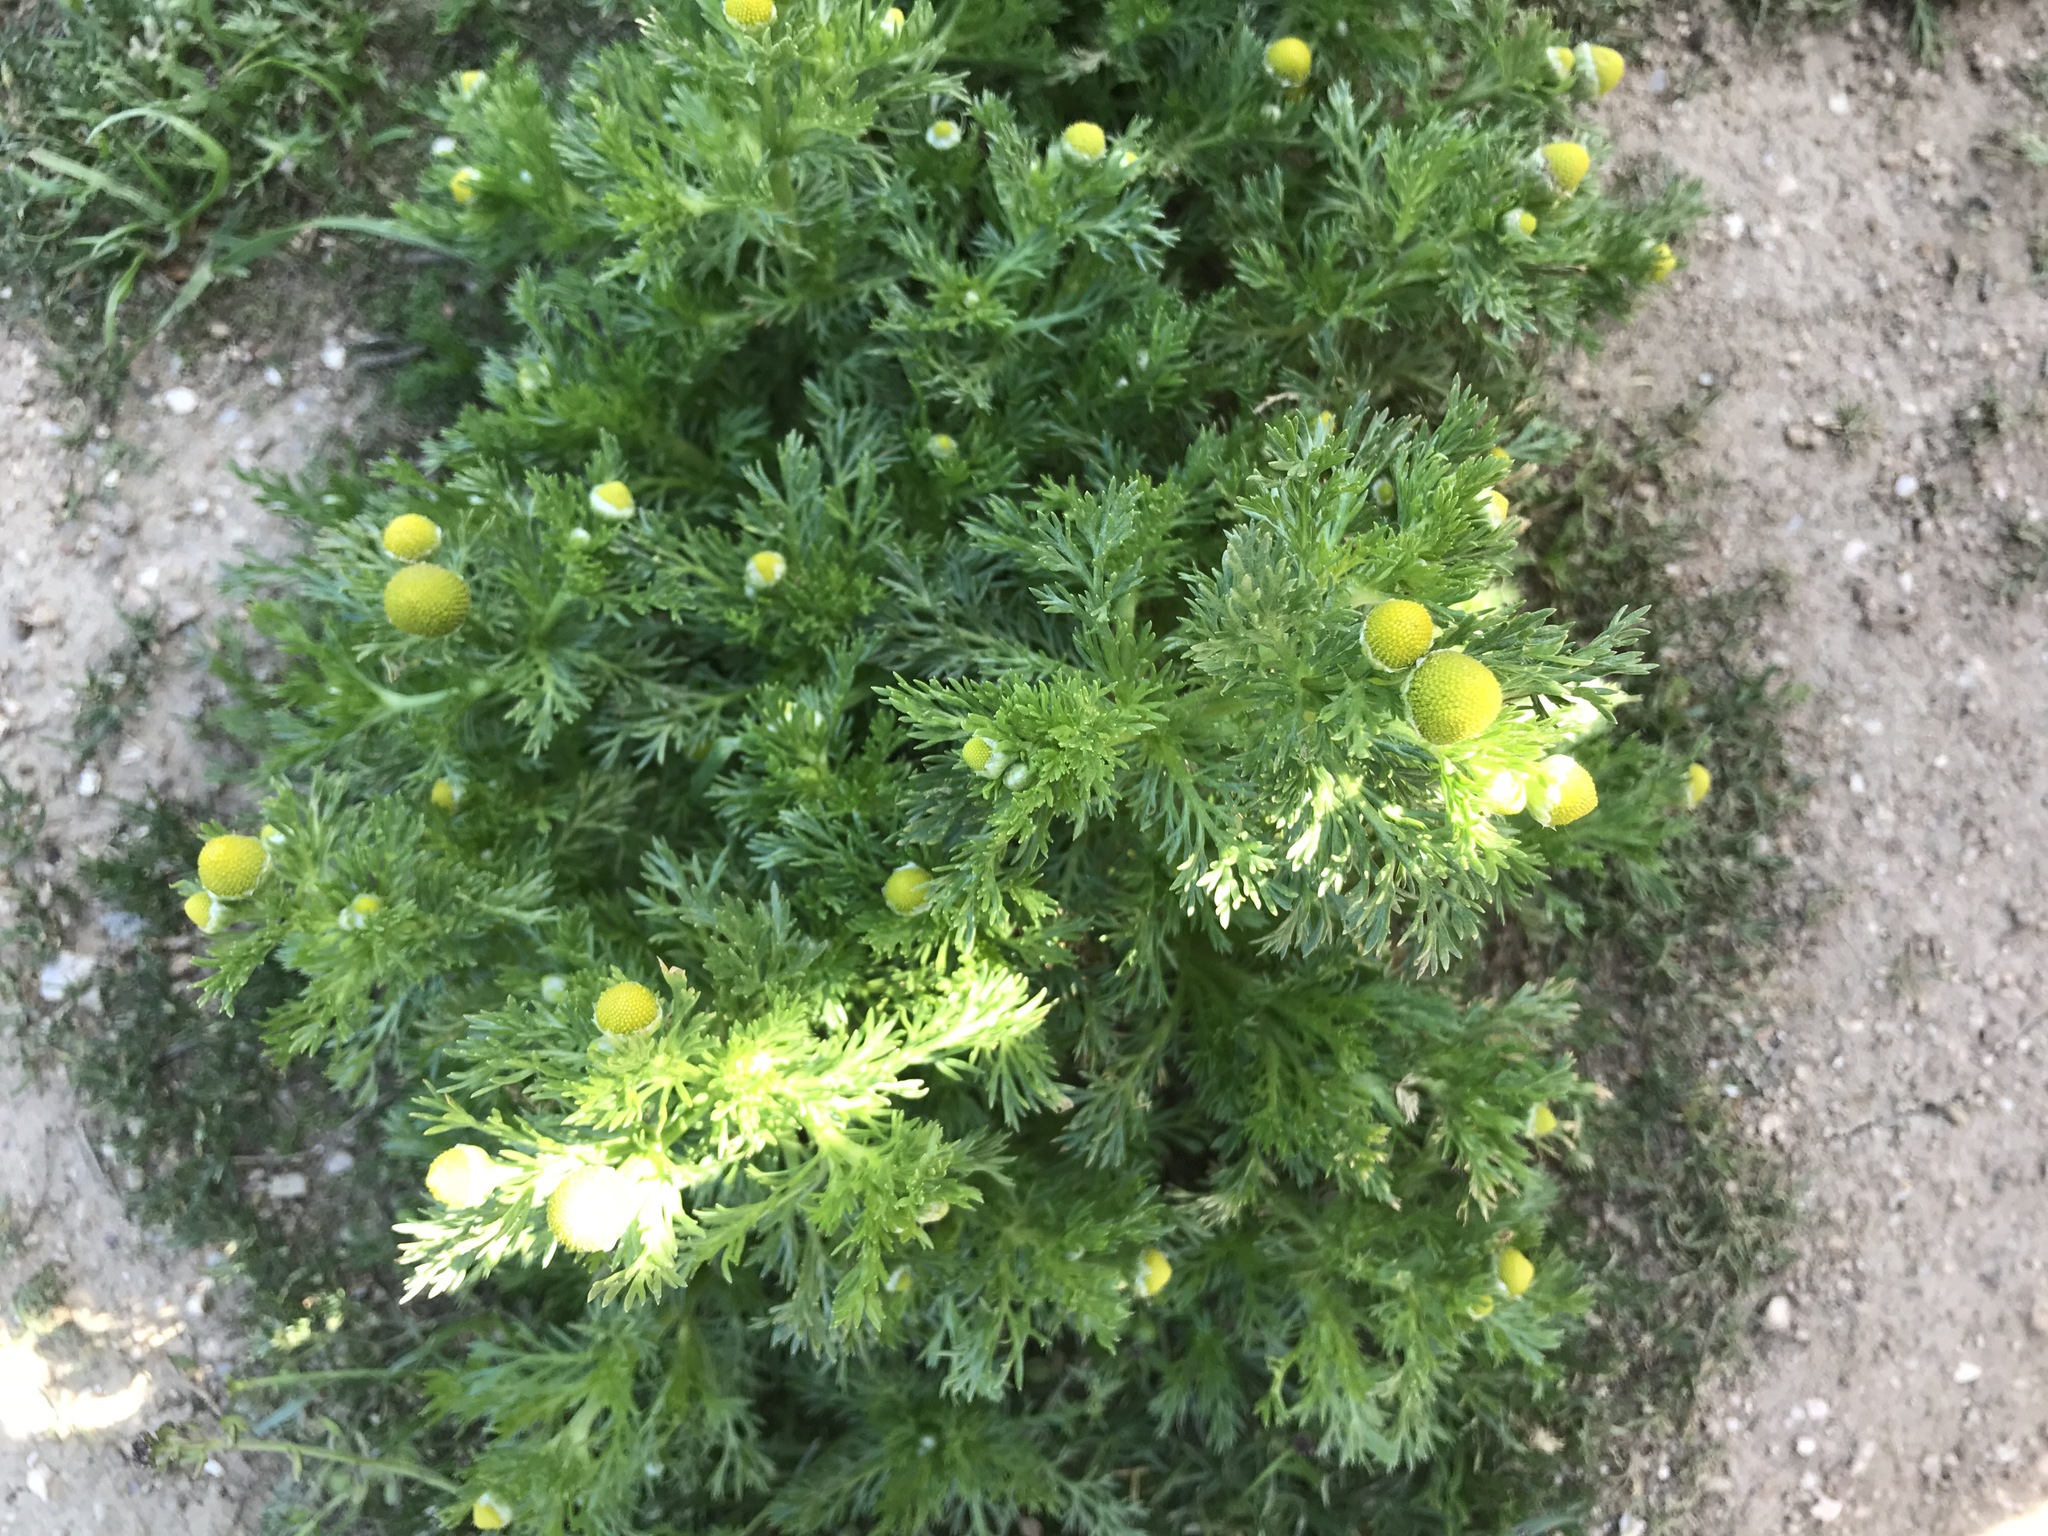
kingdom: Plantae
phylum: Tracheophyta
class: Magnoliopsida
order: Asterales
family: Asteraceae
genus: Matricaria
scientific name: Matricaria discoidea
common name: Disc mayweed
